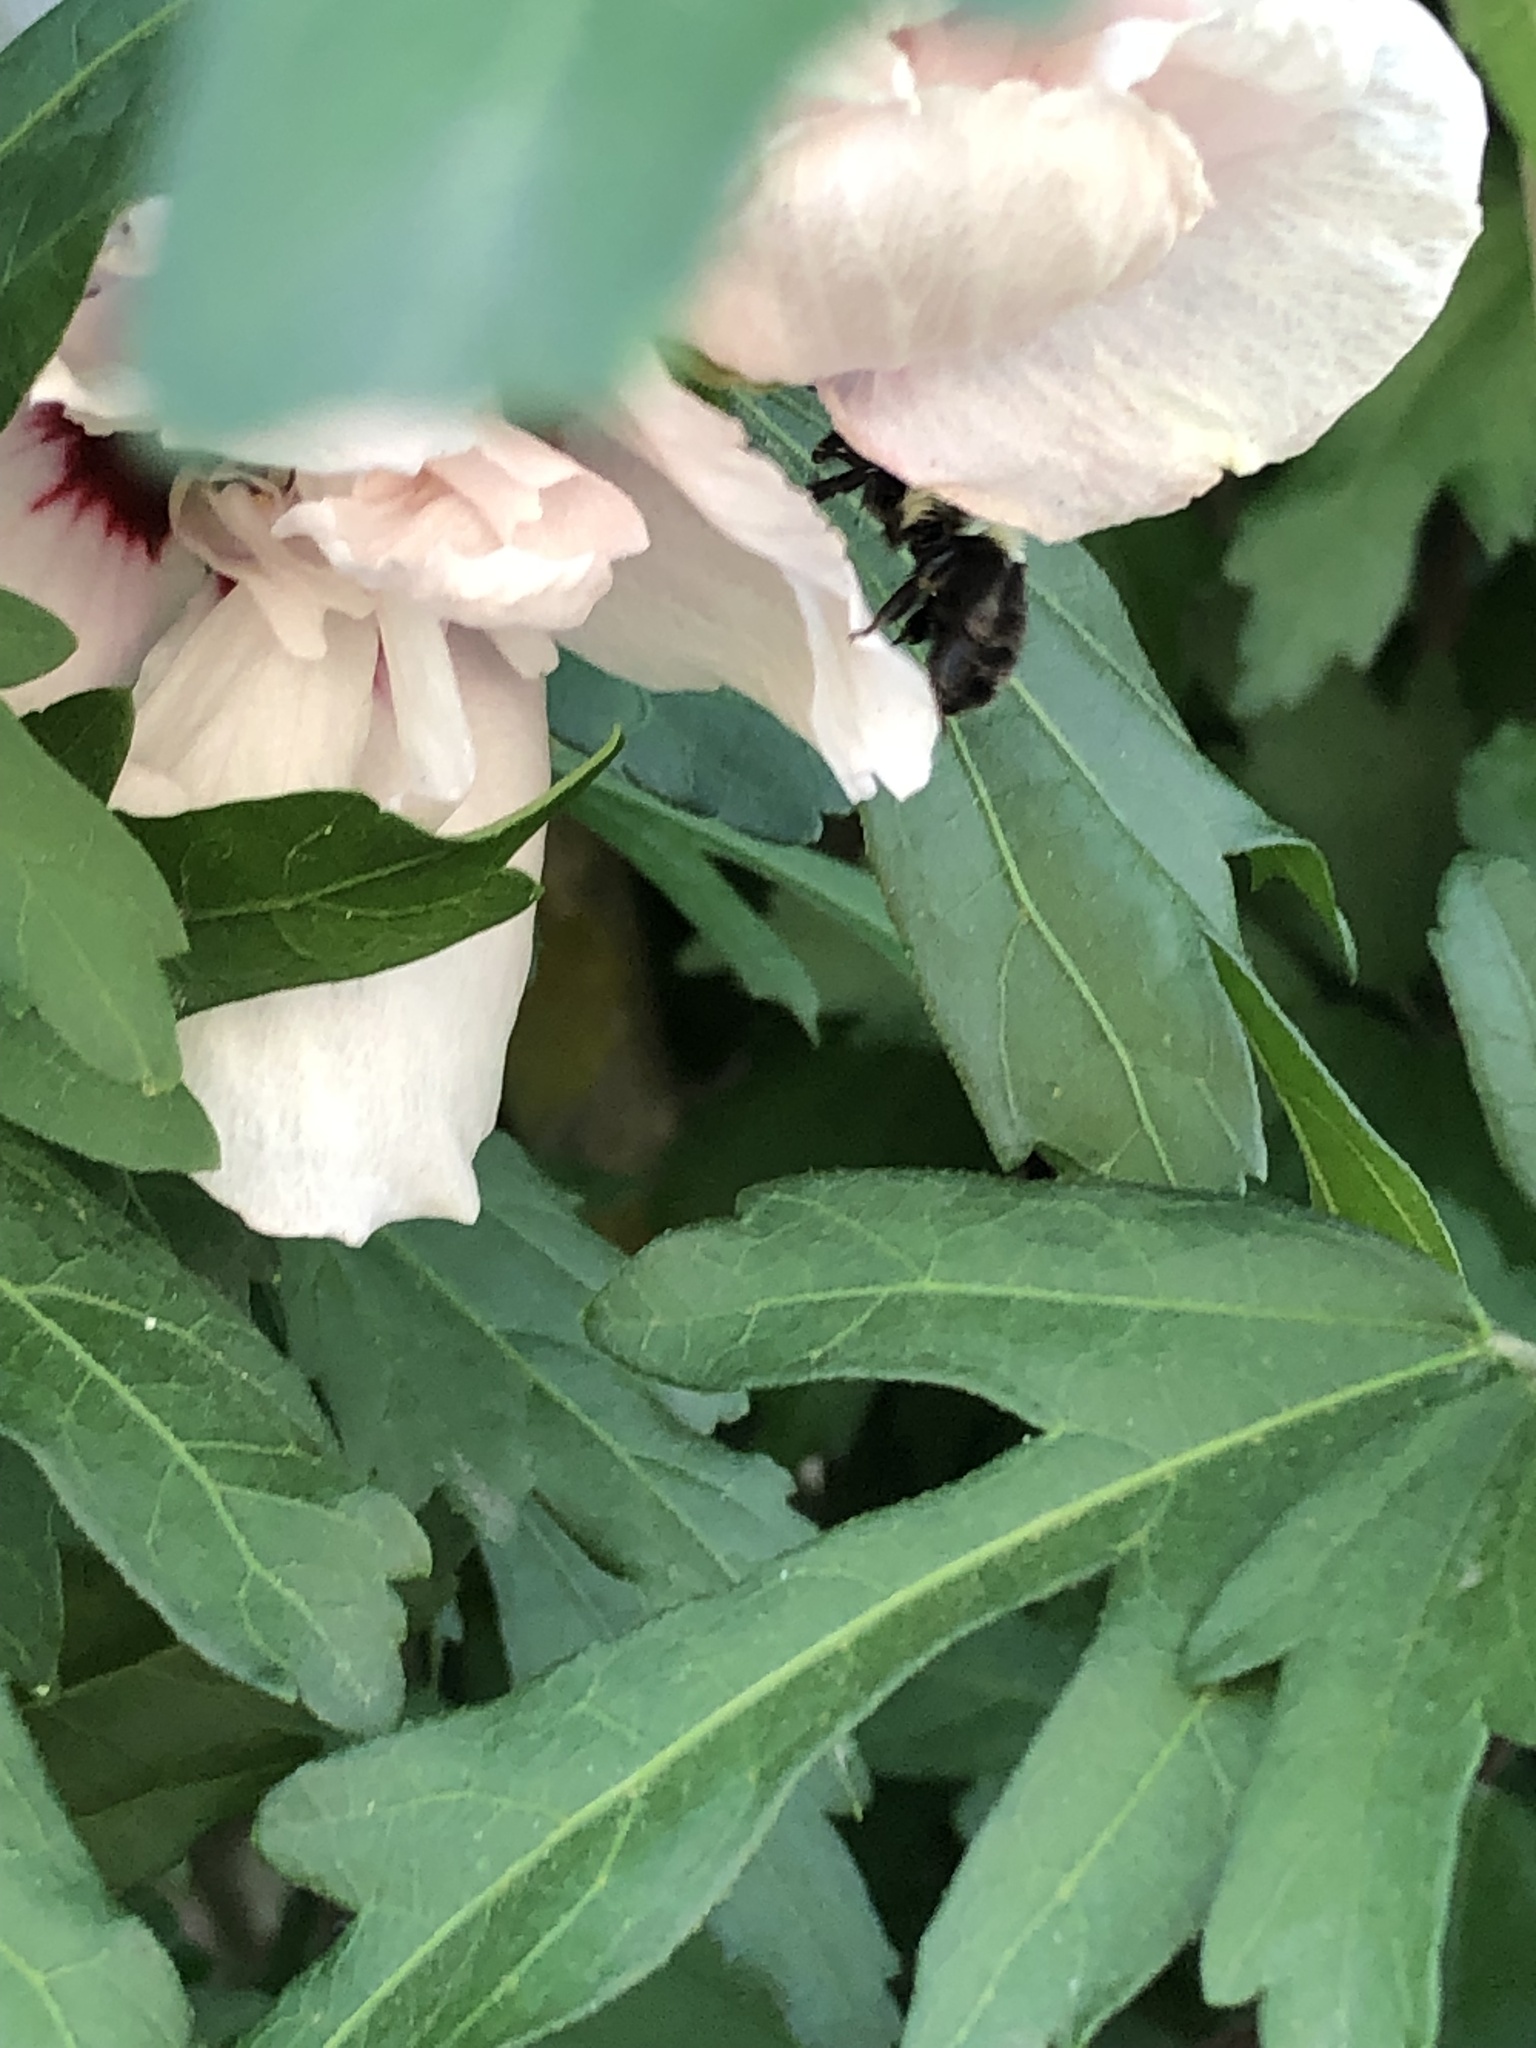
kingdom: Animalia
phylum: Arthropoda
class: Insecta
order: Hymenoptera
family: Apidae
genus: Bombus
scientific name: Bombus impatiens
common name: Common eastern bumble bee
